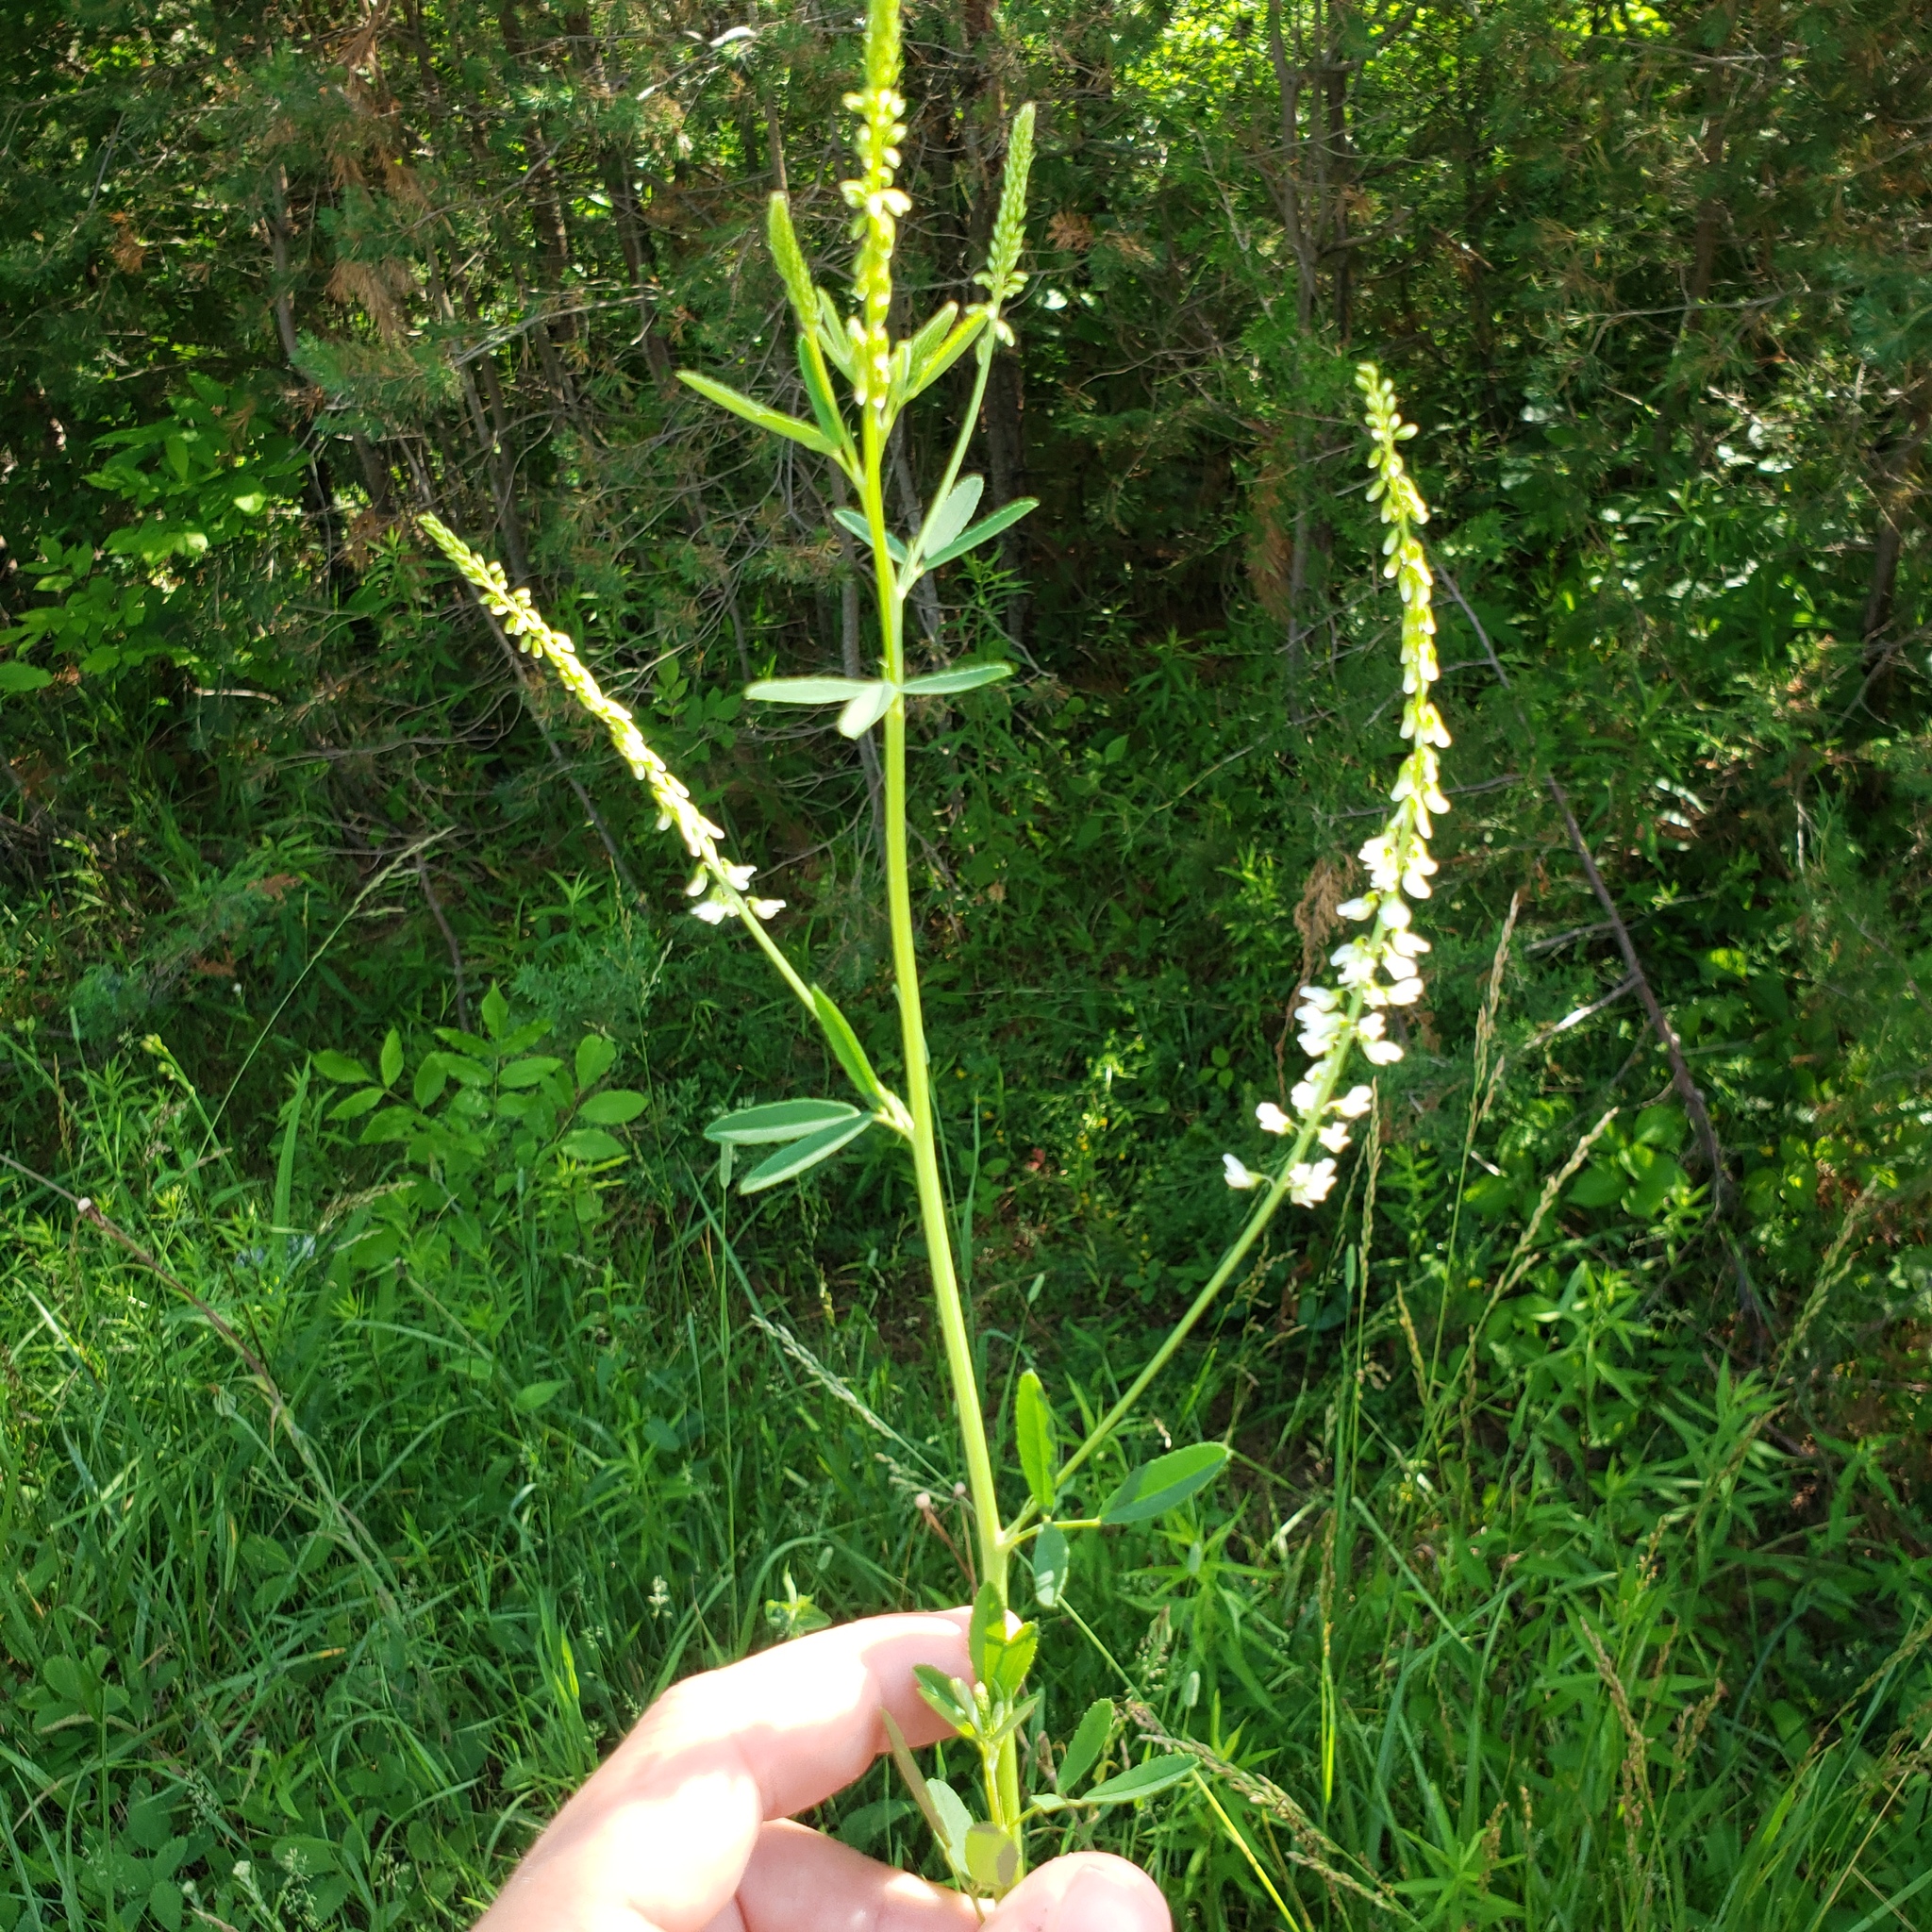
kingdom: Plantae
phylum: Tracheophyta
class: Magnoliopsida
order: Fabales
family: Fabaceae
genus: Melilotus
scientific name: Melilotus albus
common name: White melilot
